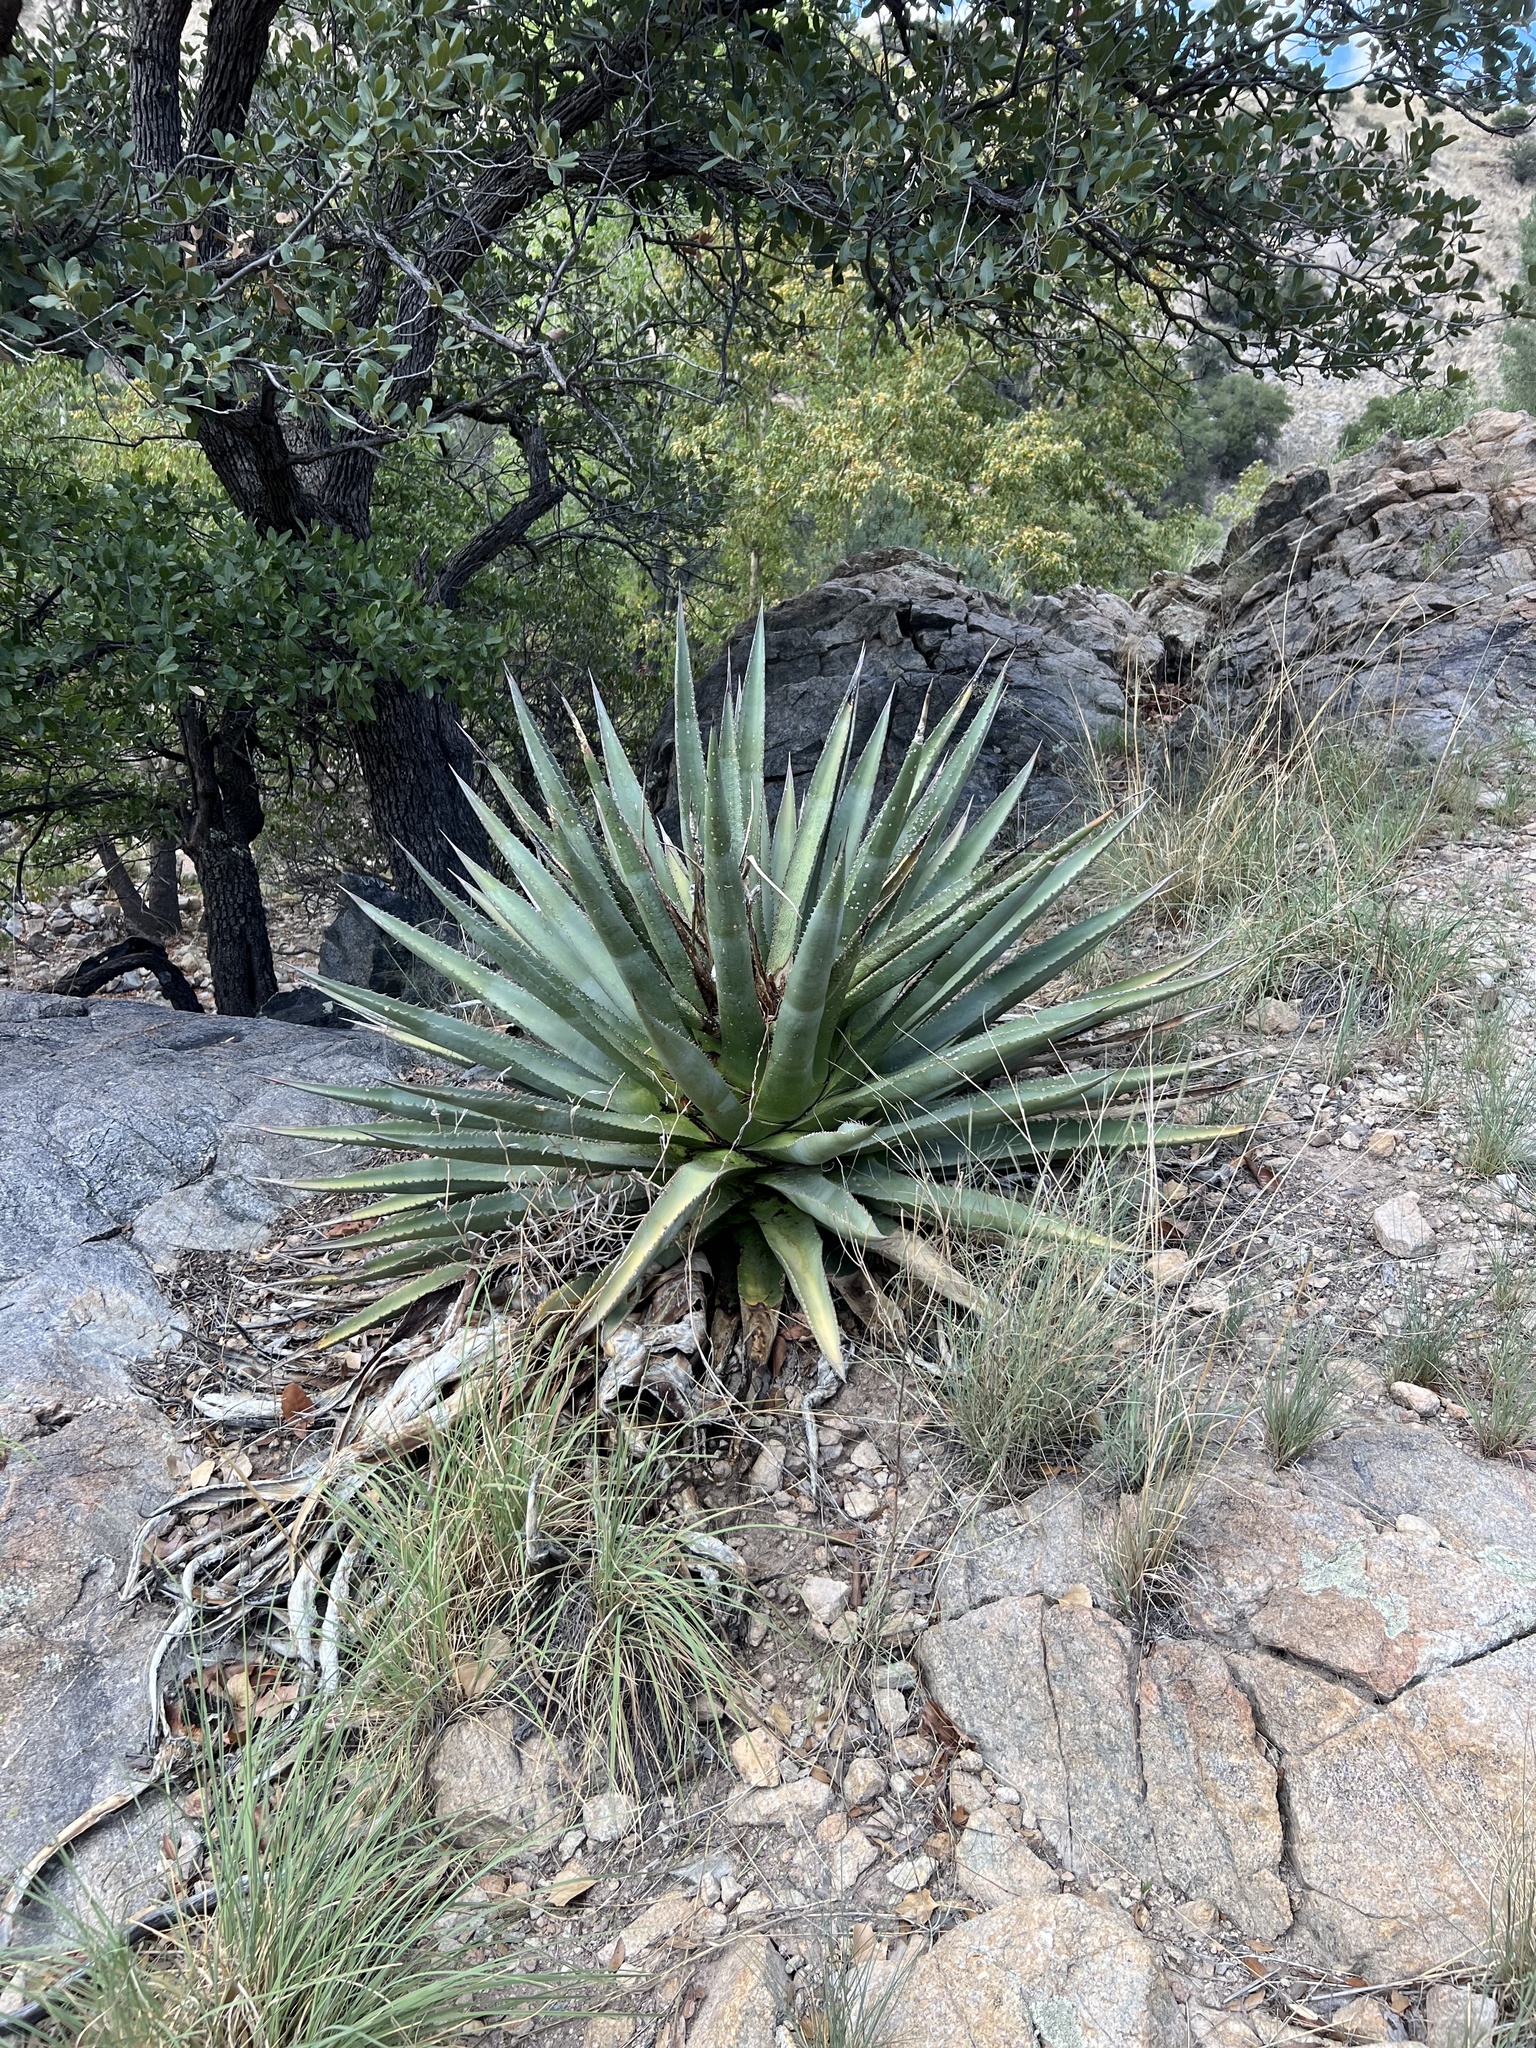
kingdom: Plantae
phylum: Tracheophyta
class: Liliopsida
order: Asparagales
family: Asparagaceae
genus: Agave
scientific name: Agave palmeri
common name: Palmer agave
